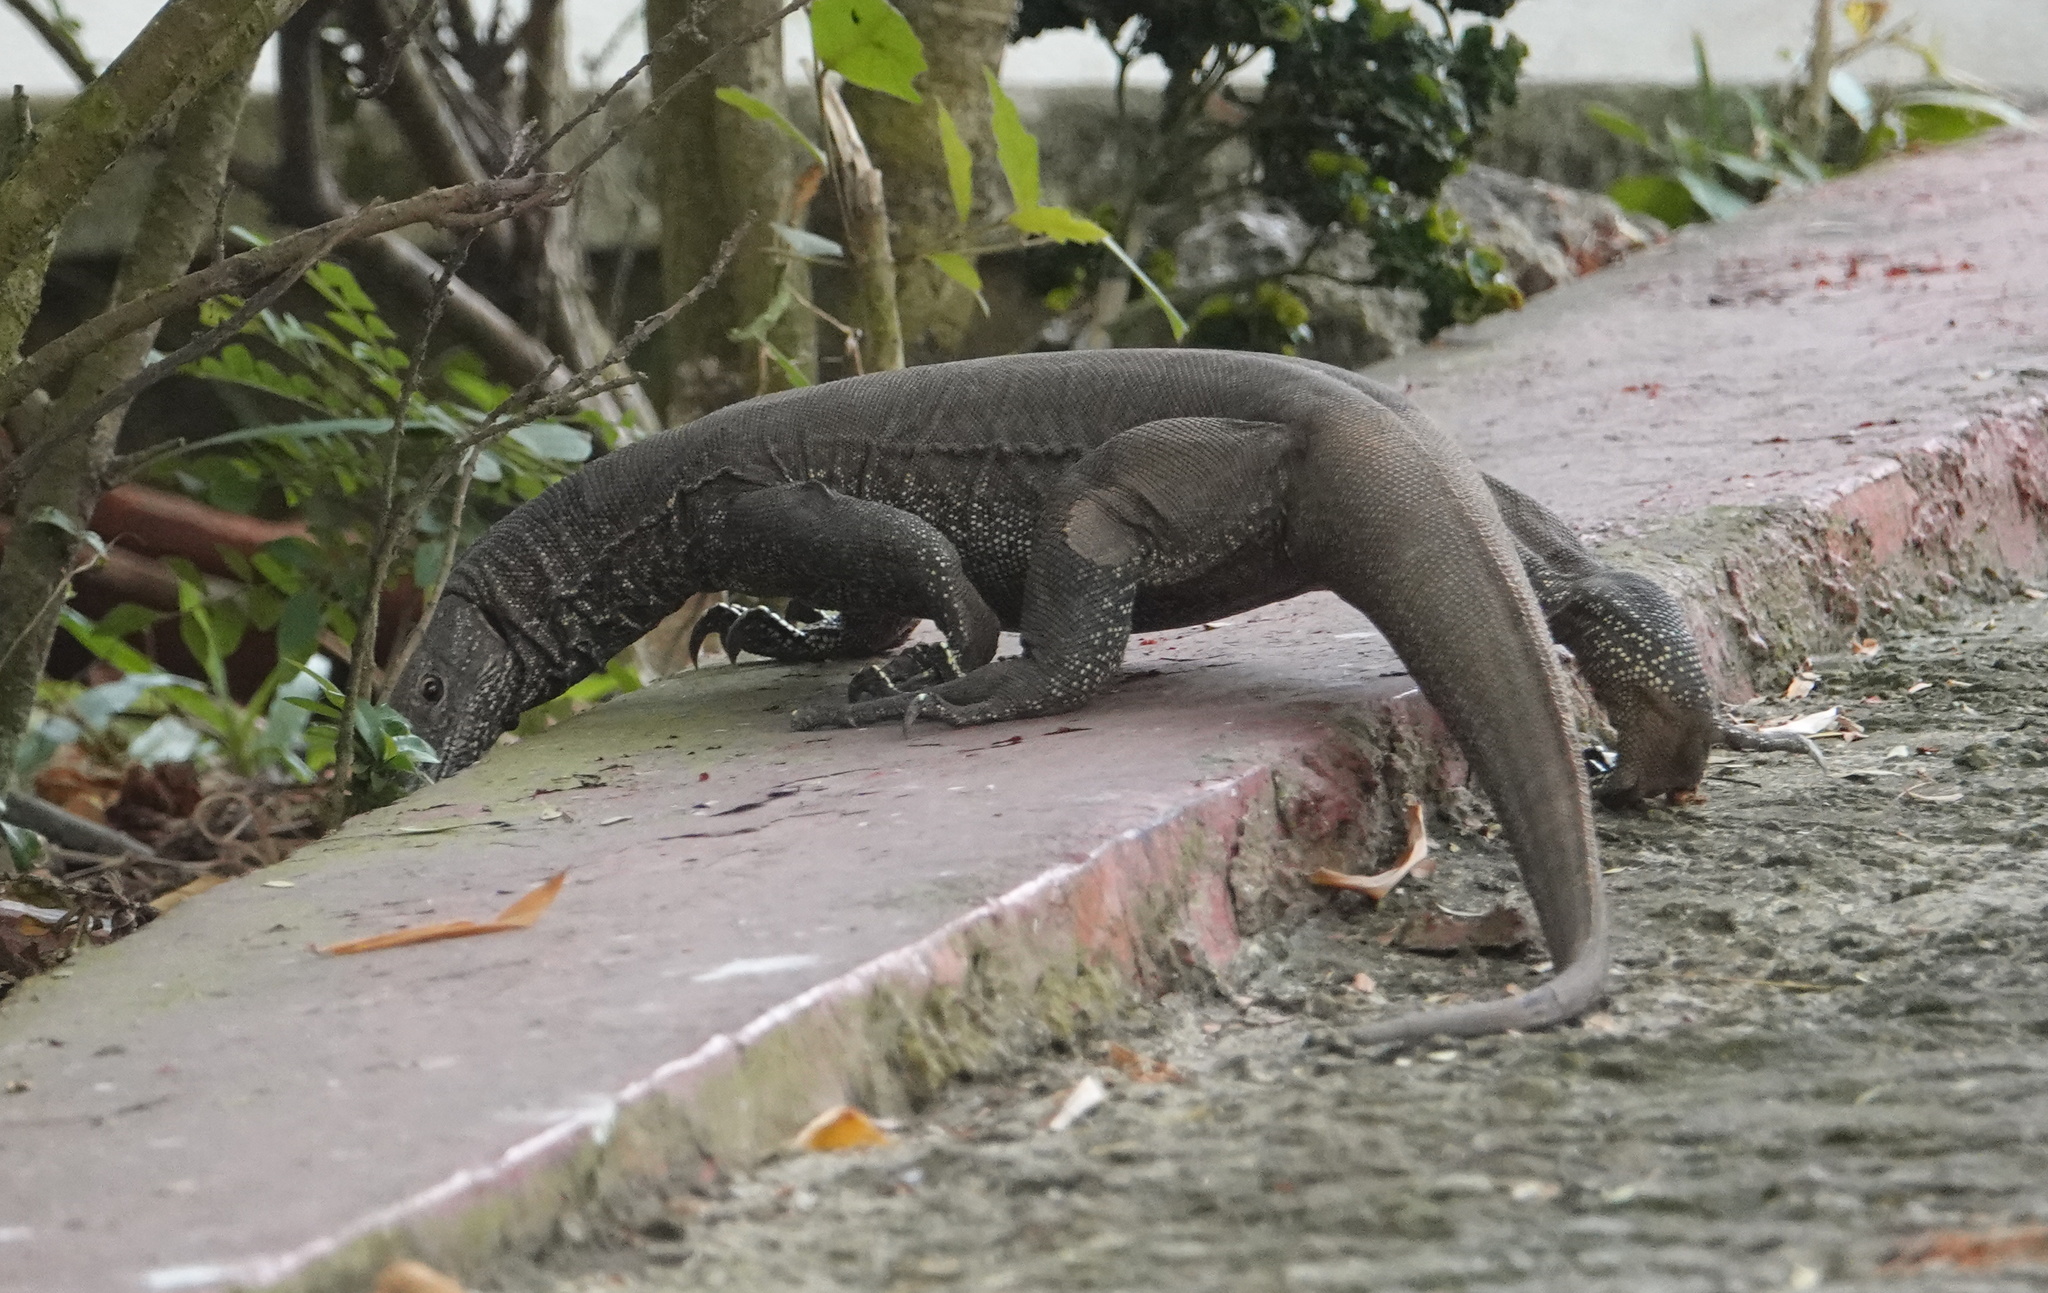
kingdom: Animalia
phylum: Chordata
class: Squamata
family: Varanidae
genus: Varanus
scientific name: Varanus bengalensis
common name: Bengal monitor
